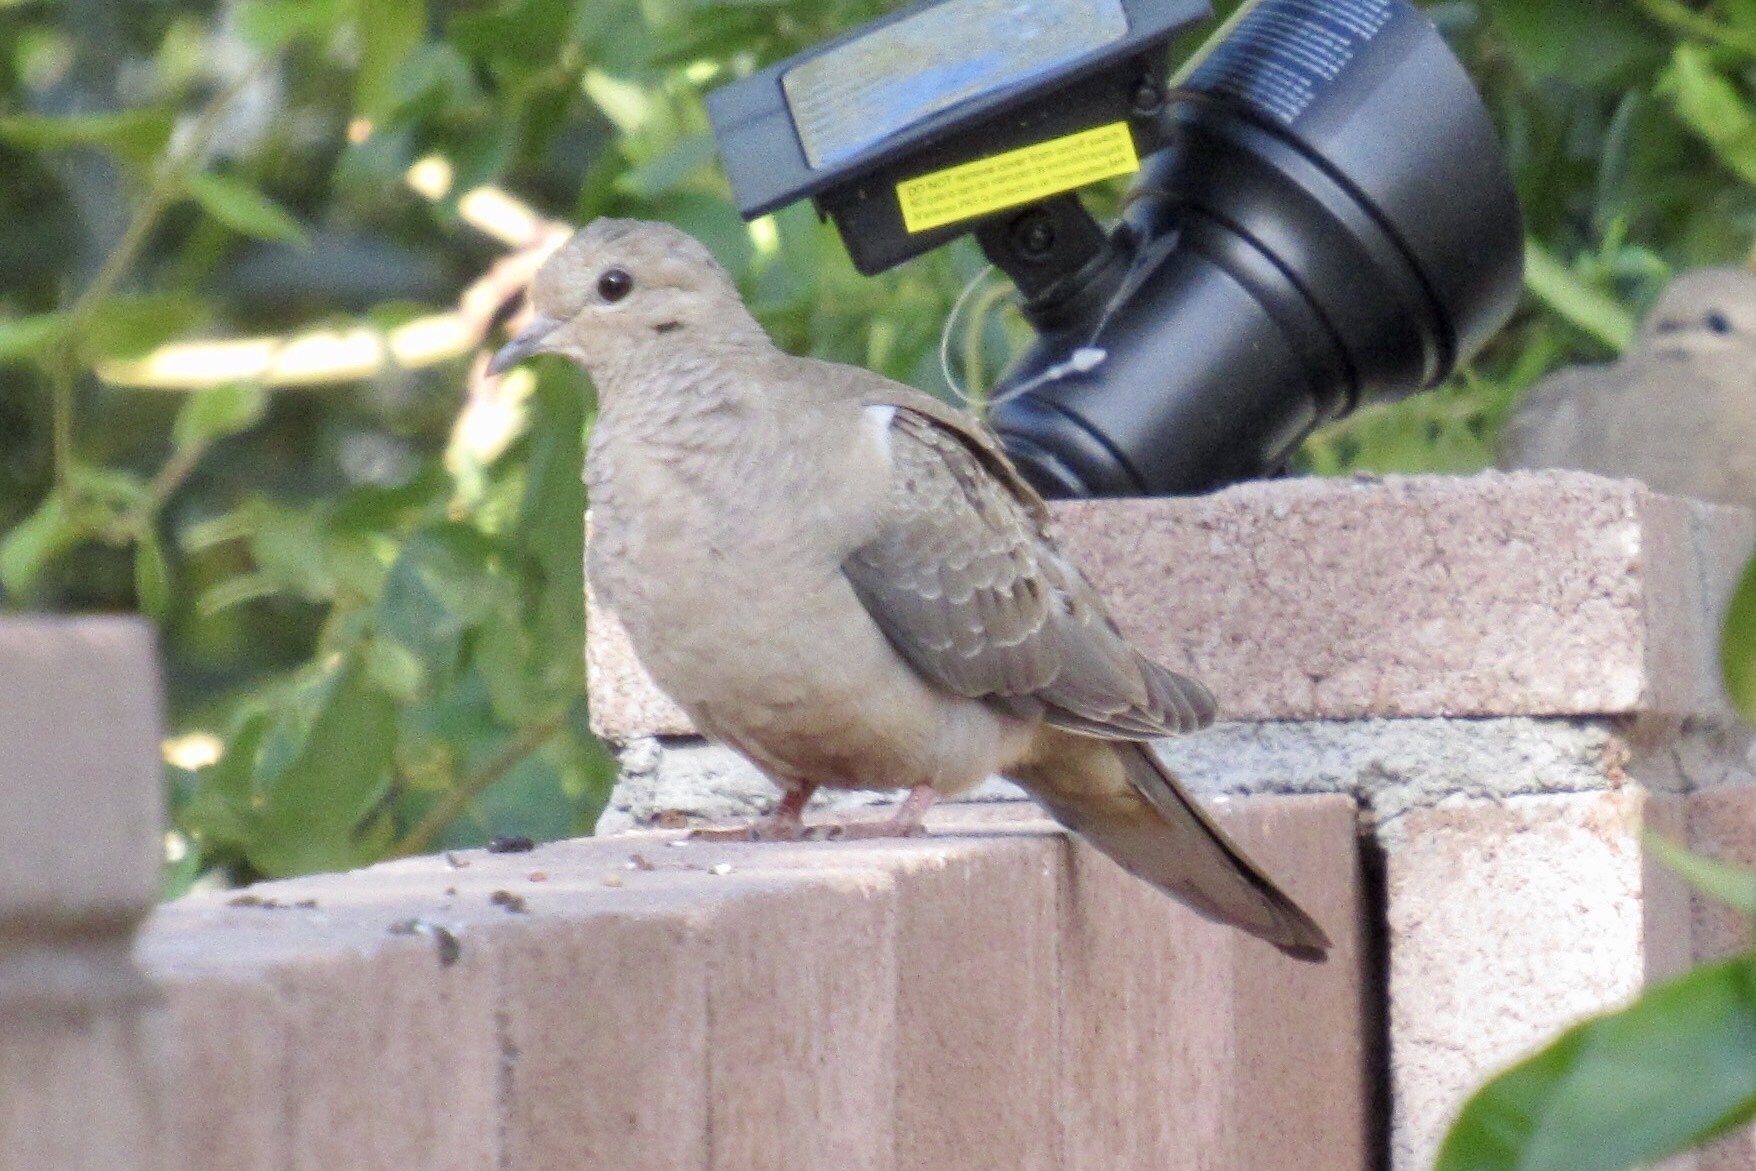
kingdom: Animalia
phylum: Chordata
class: Aves
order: Columbiformes
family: Columbidae
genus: Zenaida
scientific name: Zenaida macroura
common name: Mourning dove
